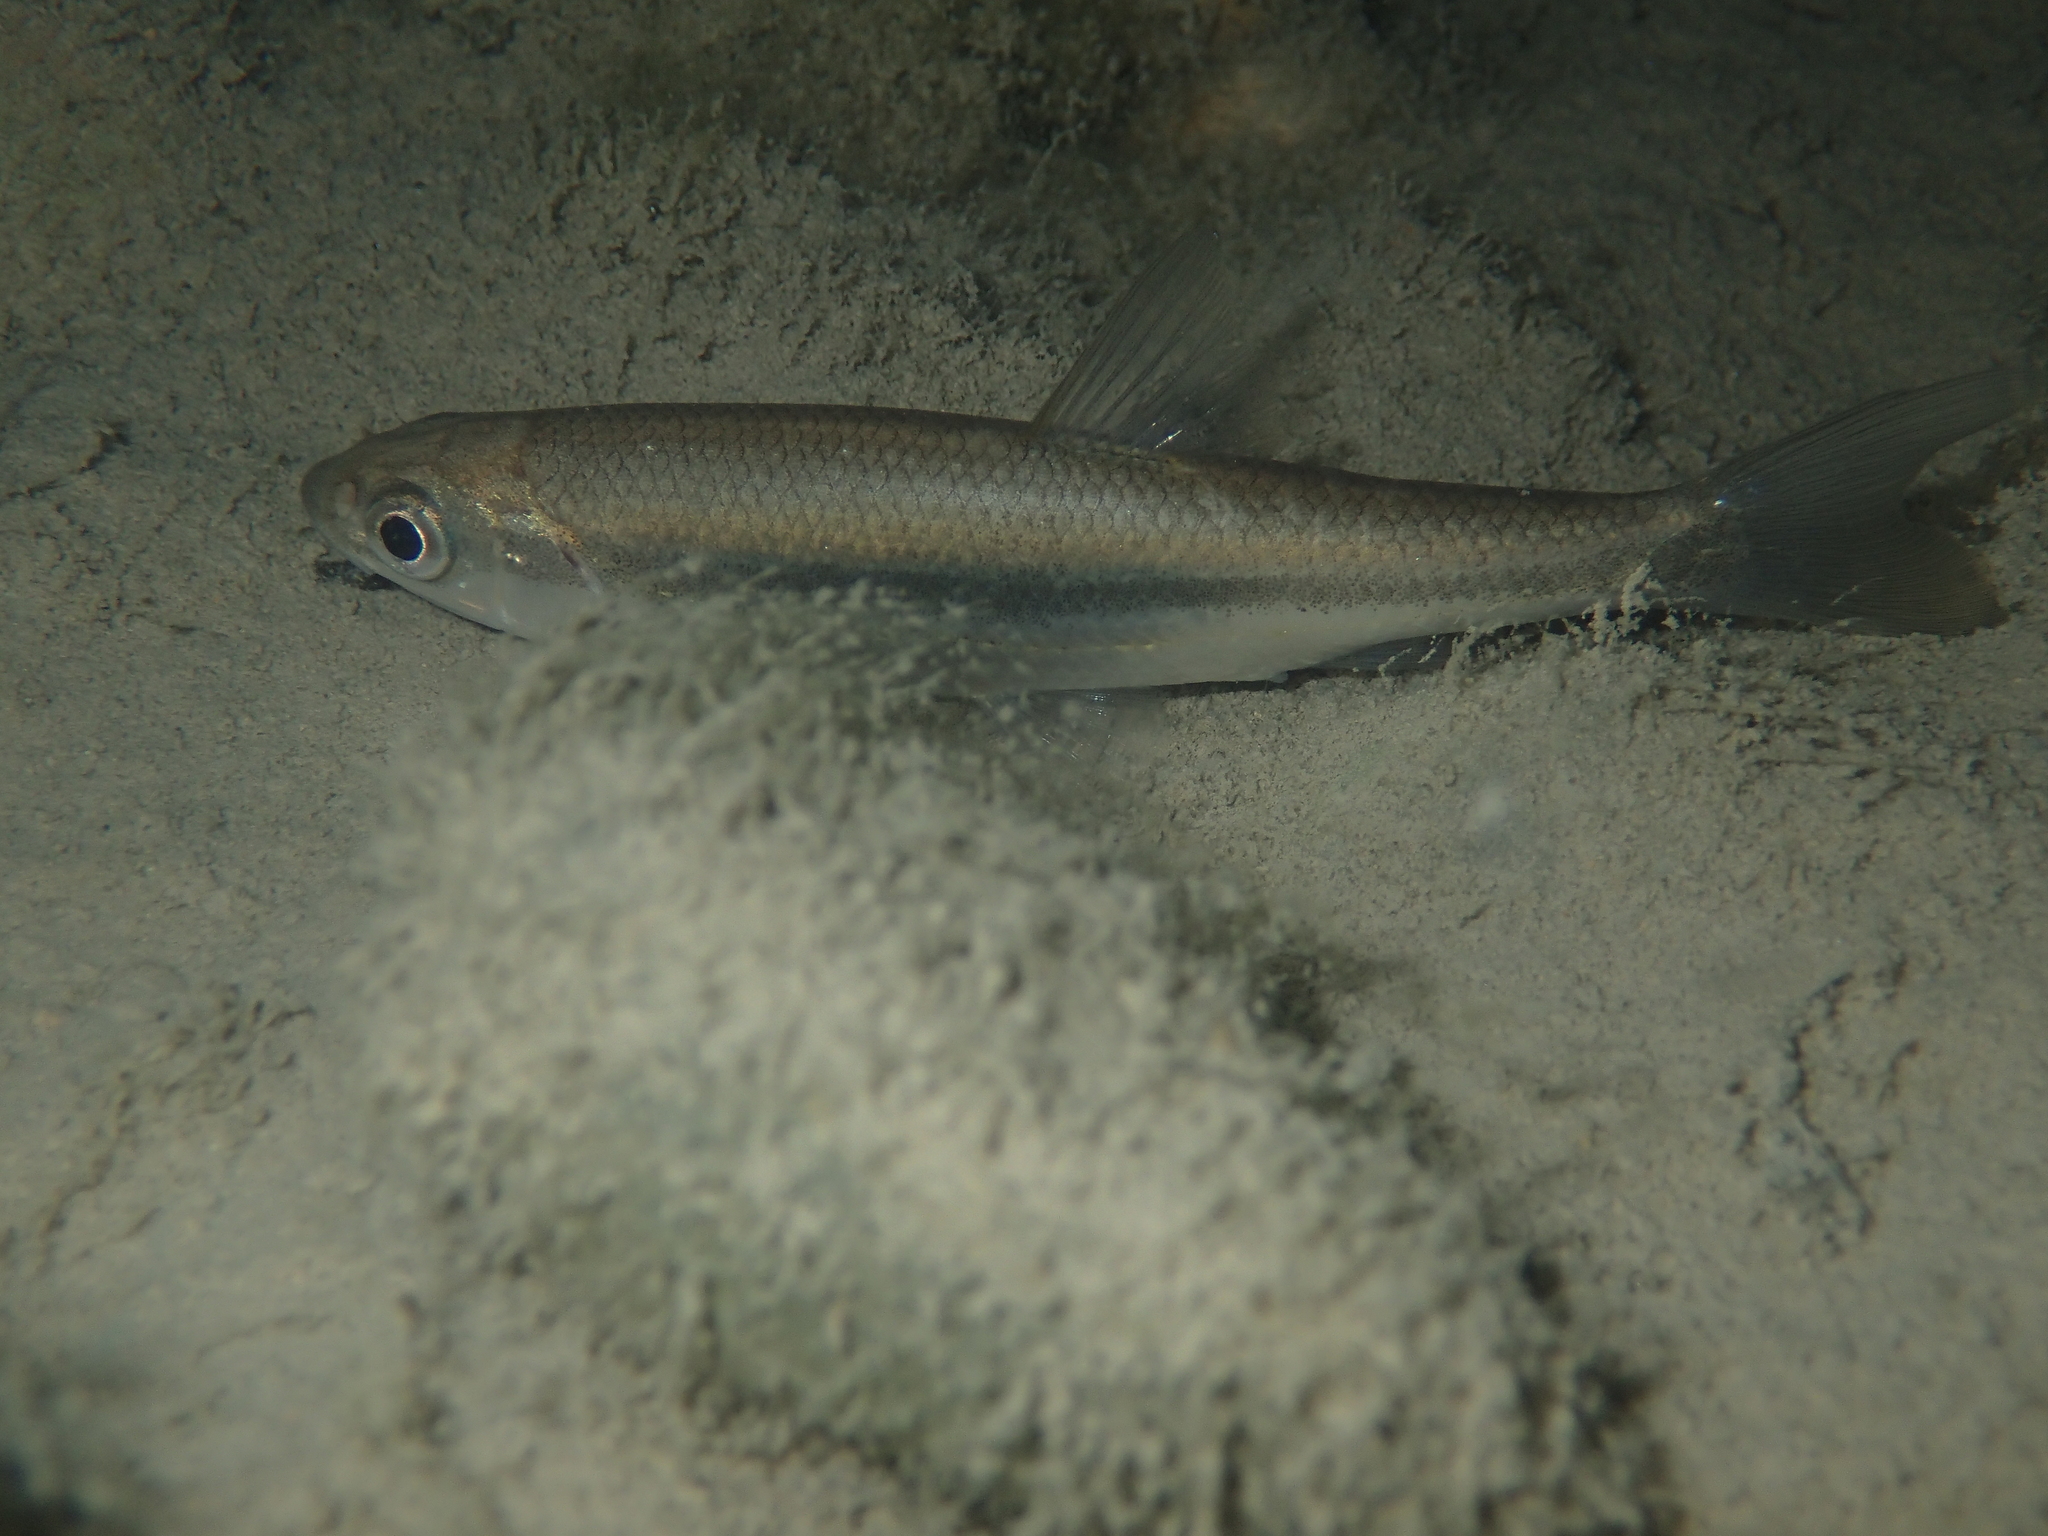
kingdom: Animalia
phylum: Chordata
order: Cypriniformes
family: Cyprinidae
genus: Telestes
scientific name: Telestes souffia
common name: Souffia
